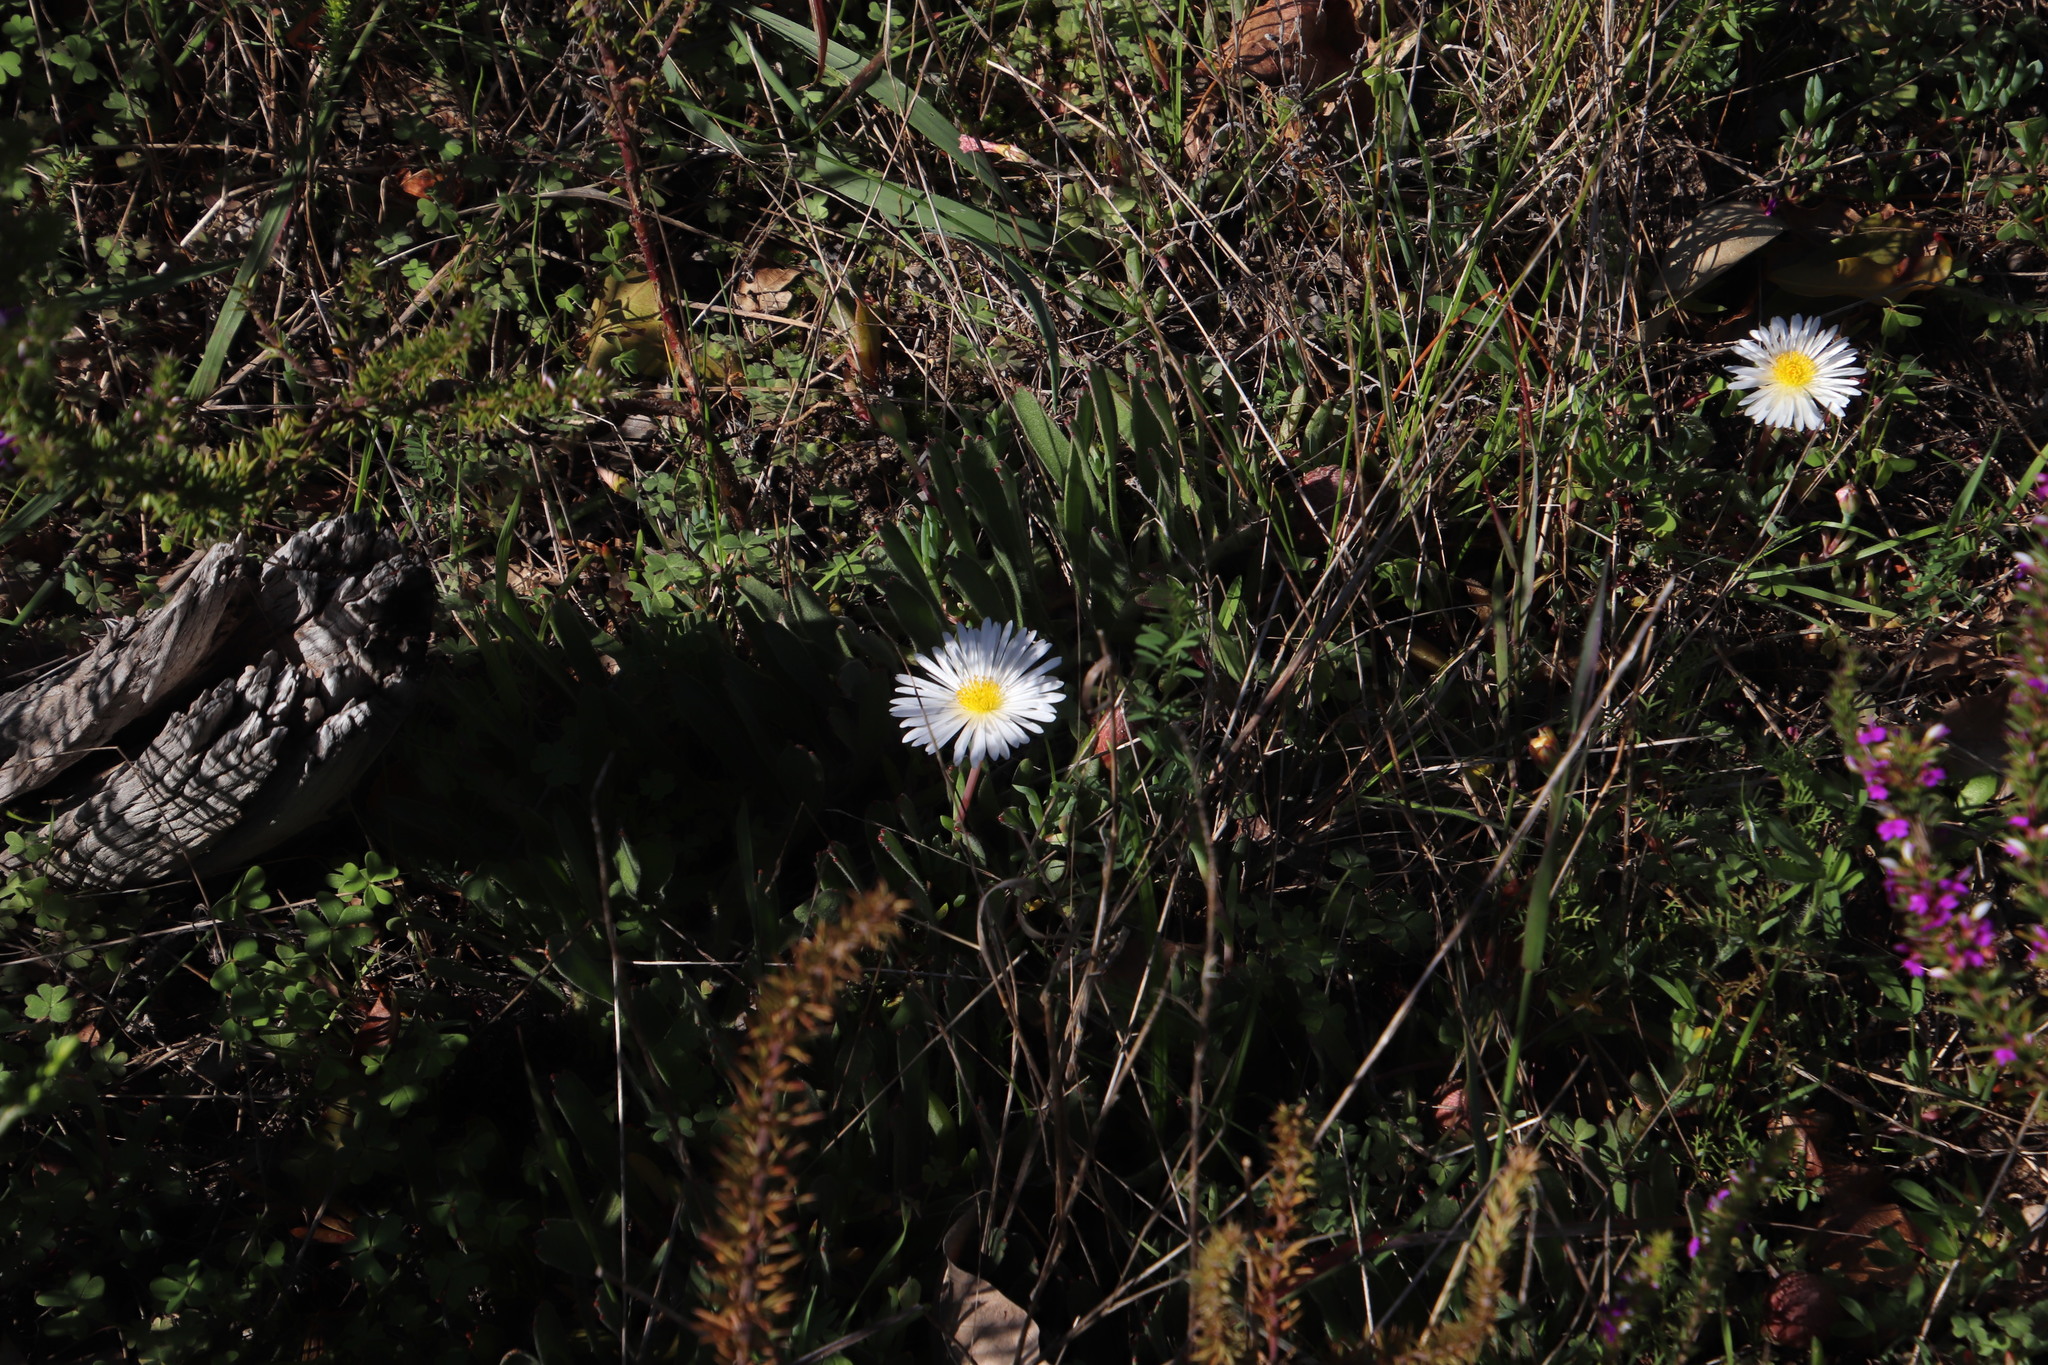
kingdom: Plantae
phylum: Tracheophyta
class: Magnoliopsida
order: Caryophyllales
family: Aizoaceae
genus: Lampranthus
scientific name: Lampranthus reptans
